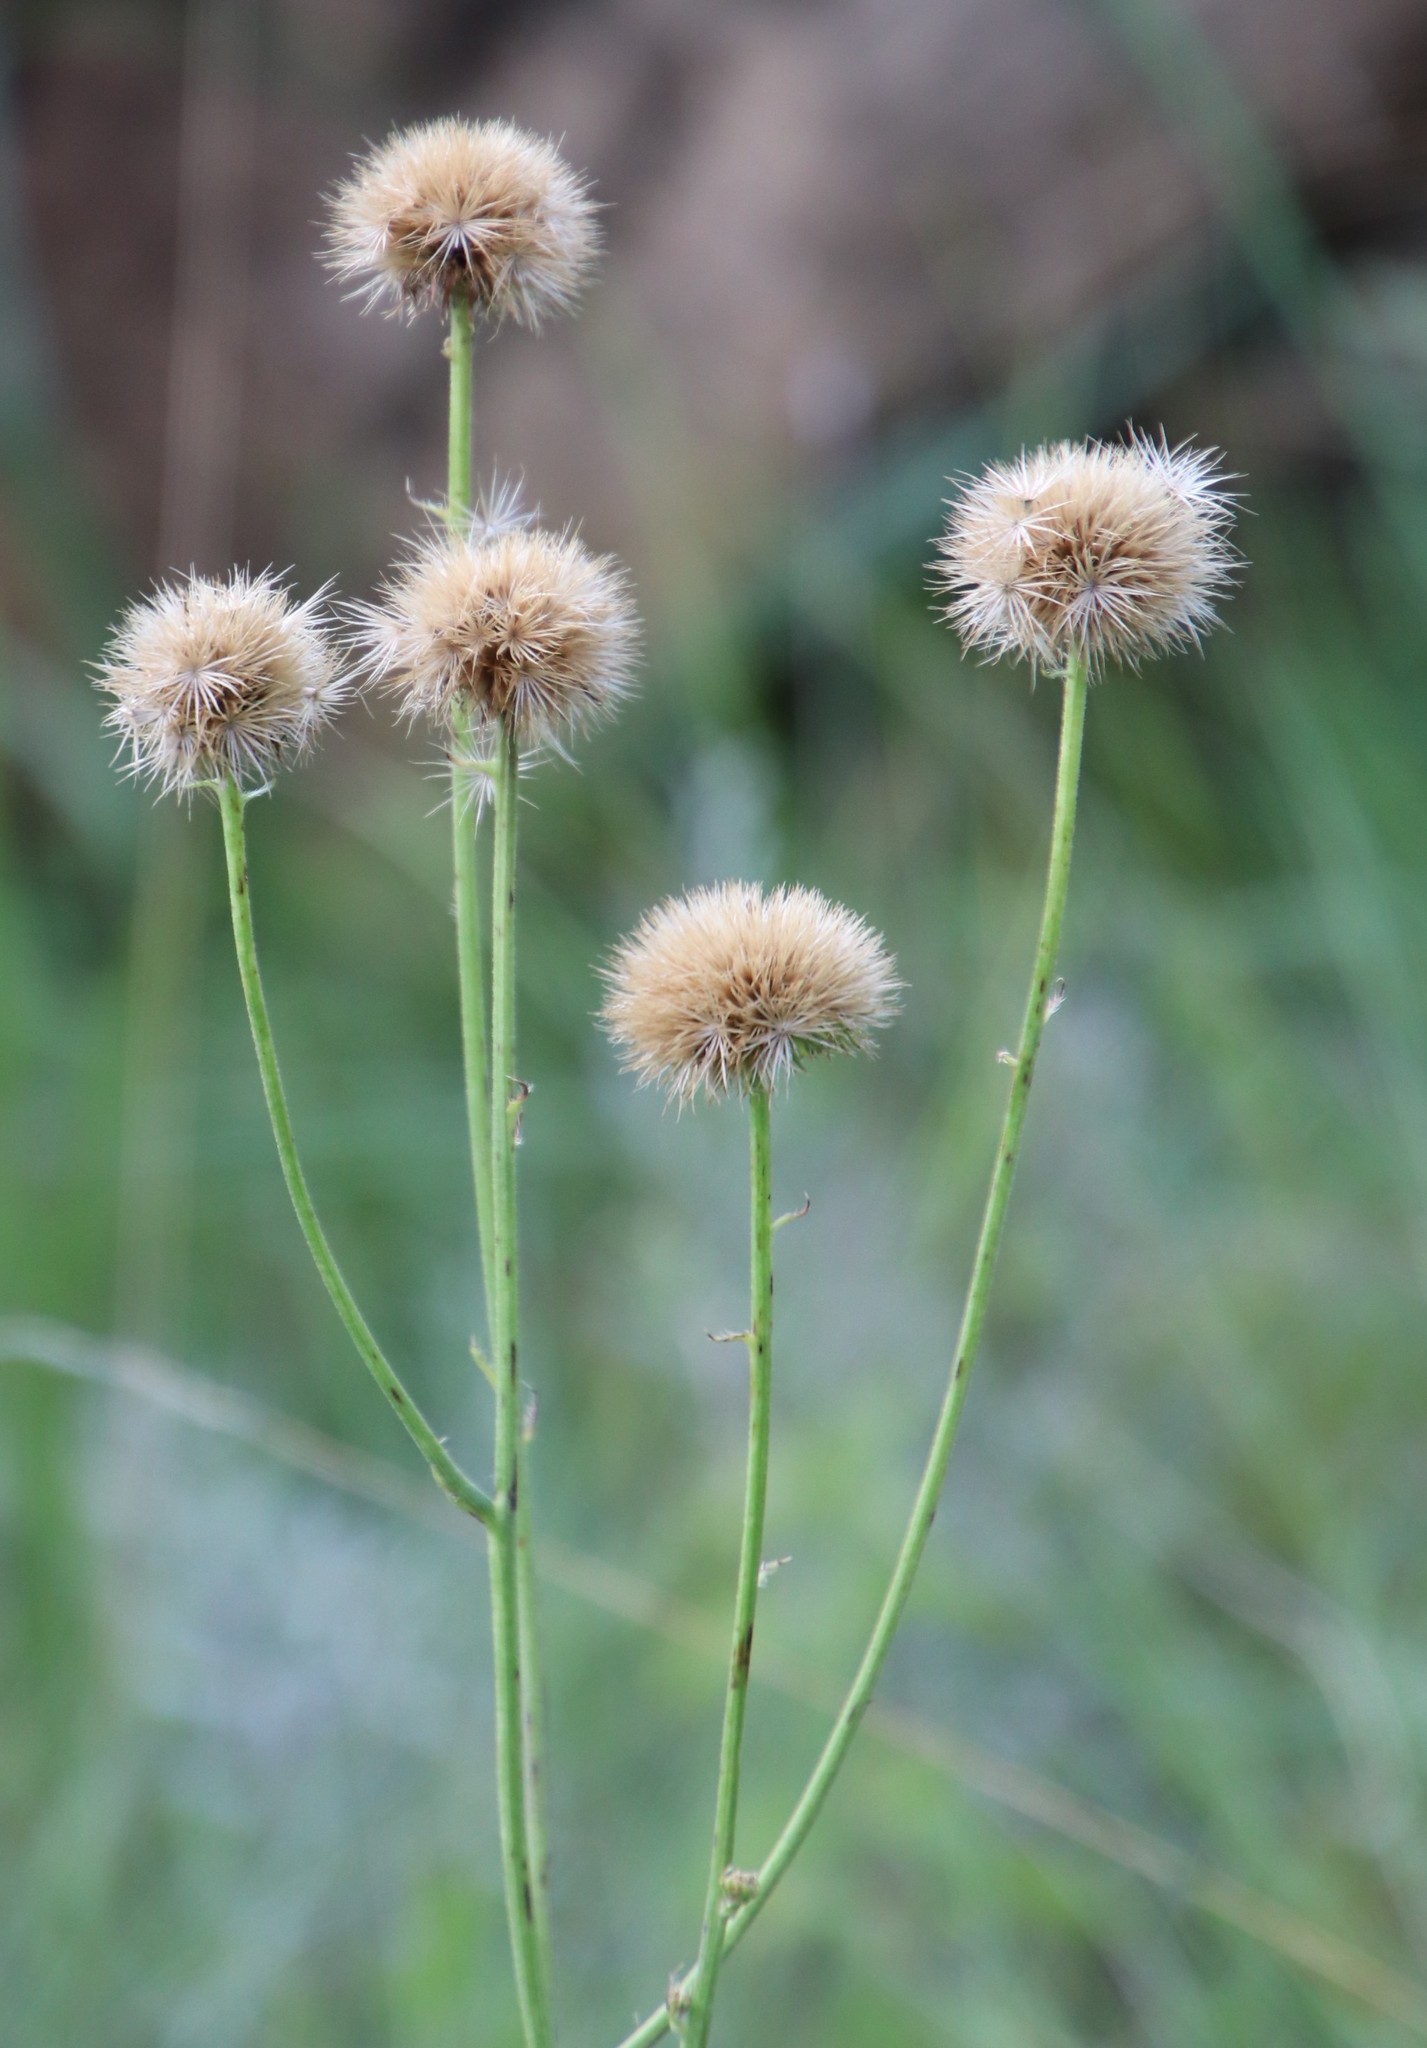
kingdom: Plantae
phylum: Tracheophyta
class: Magnoliopsida
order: Asterales
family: Asteraceae
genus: Berkheya
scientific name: Berkheya setifera
